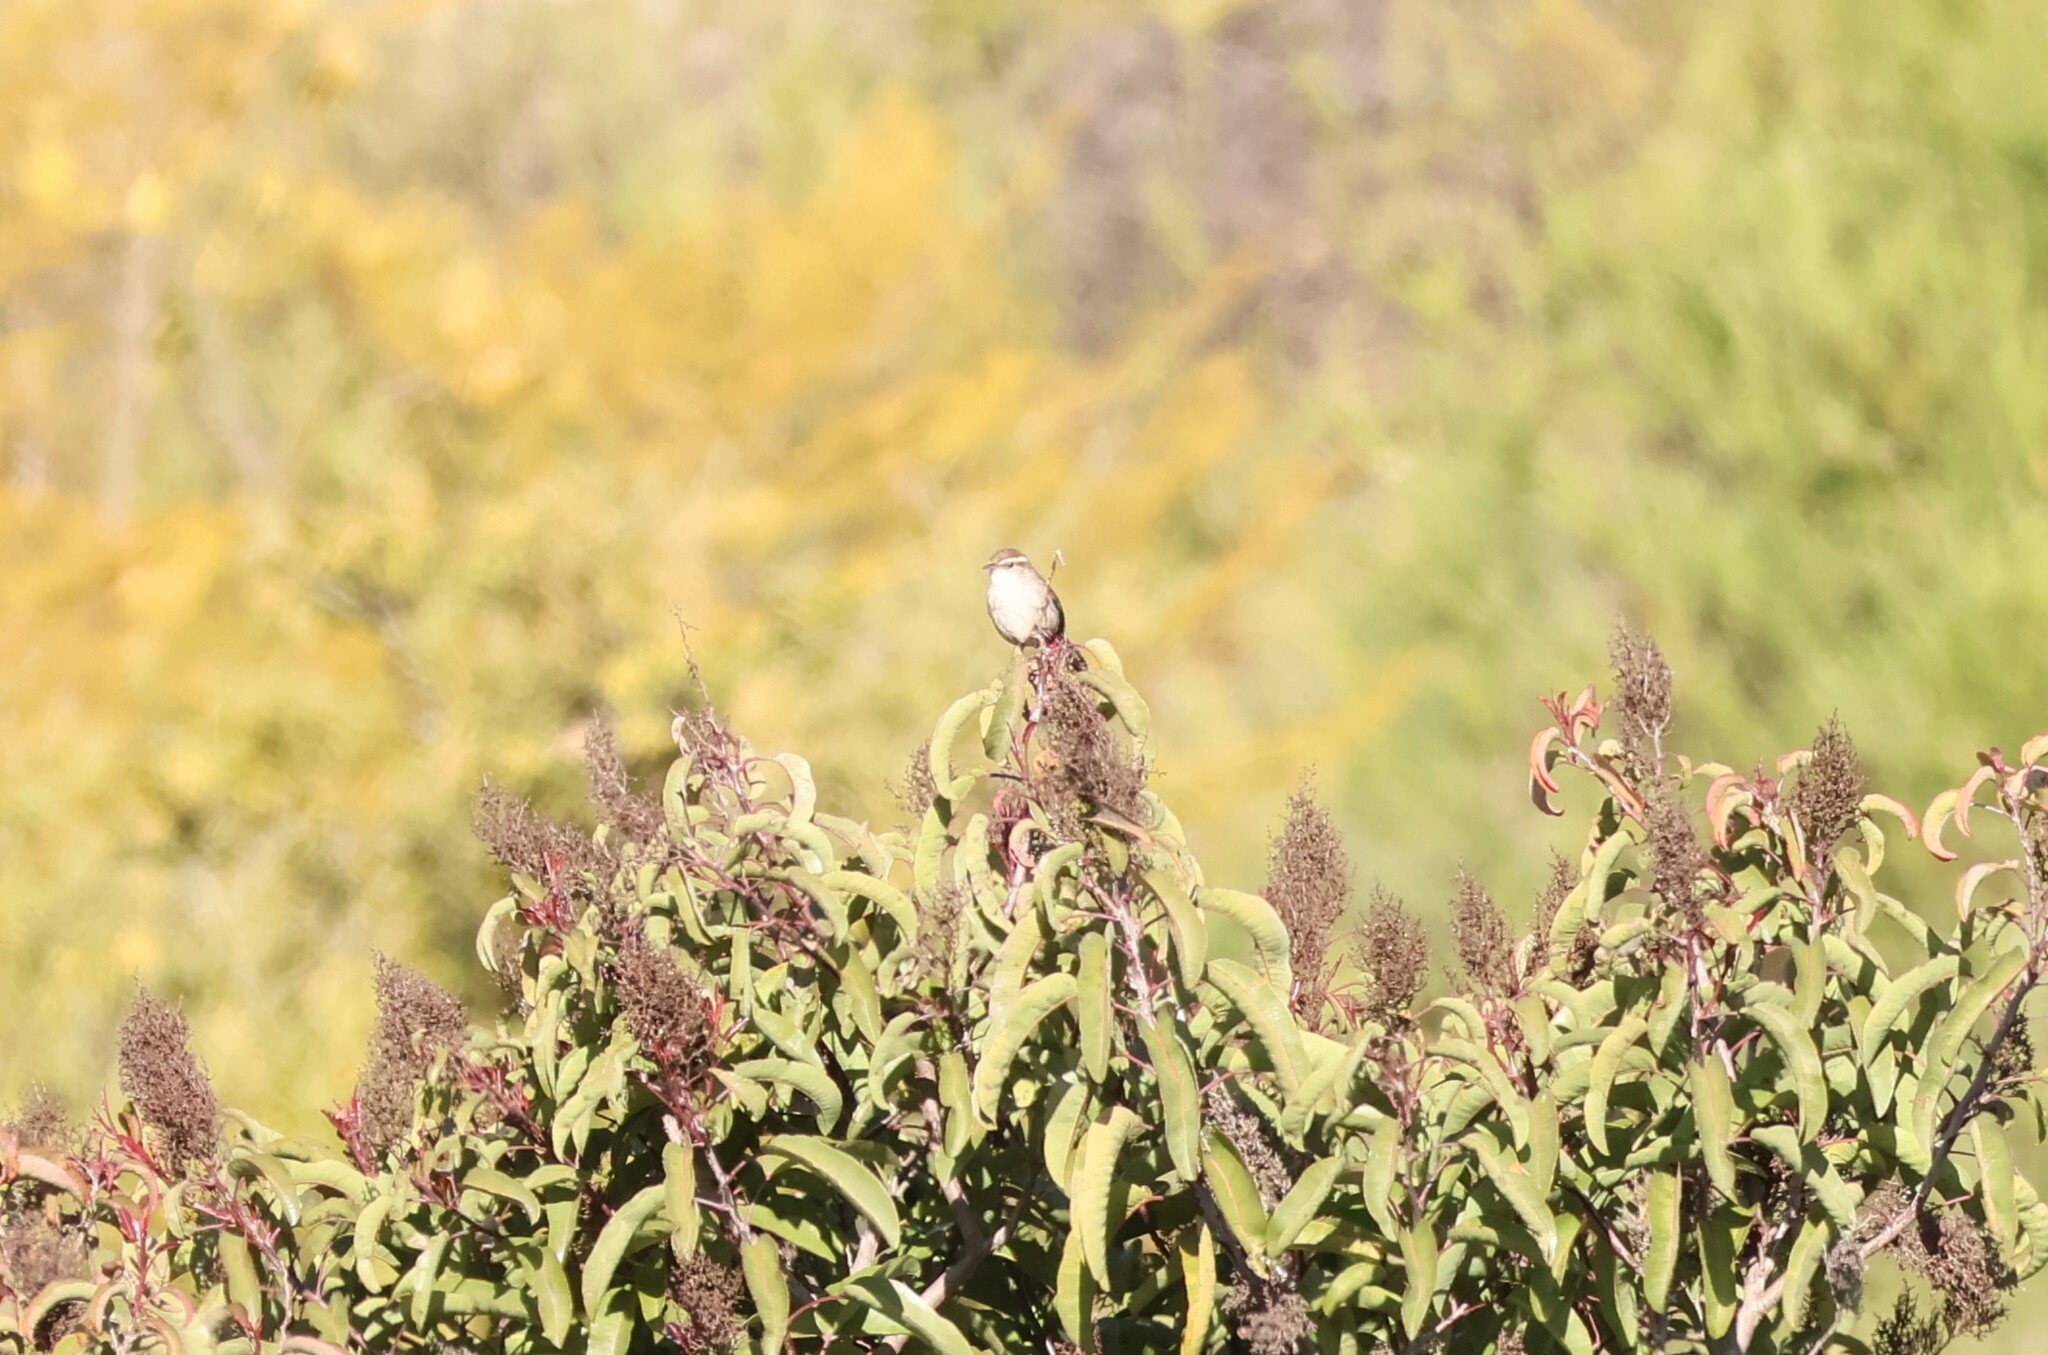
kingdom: Animalia
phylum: Chordata
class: Aves
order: Passeriformes
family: Troglodytidae
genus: Thryomanes
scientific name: Thryomanes bewickii
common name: Bewick's wren
